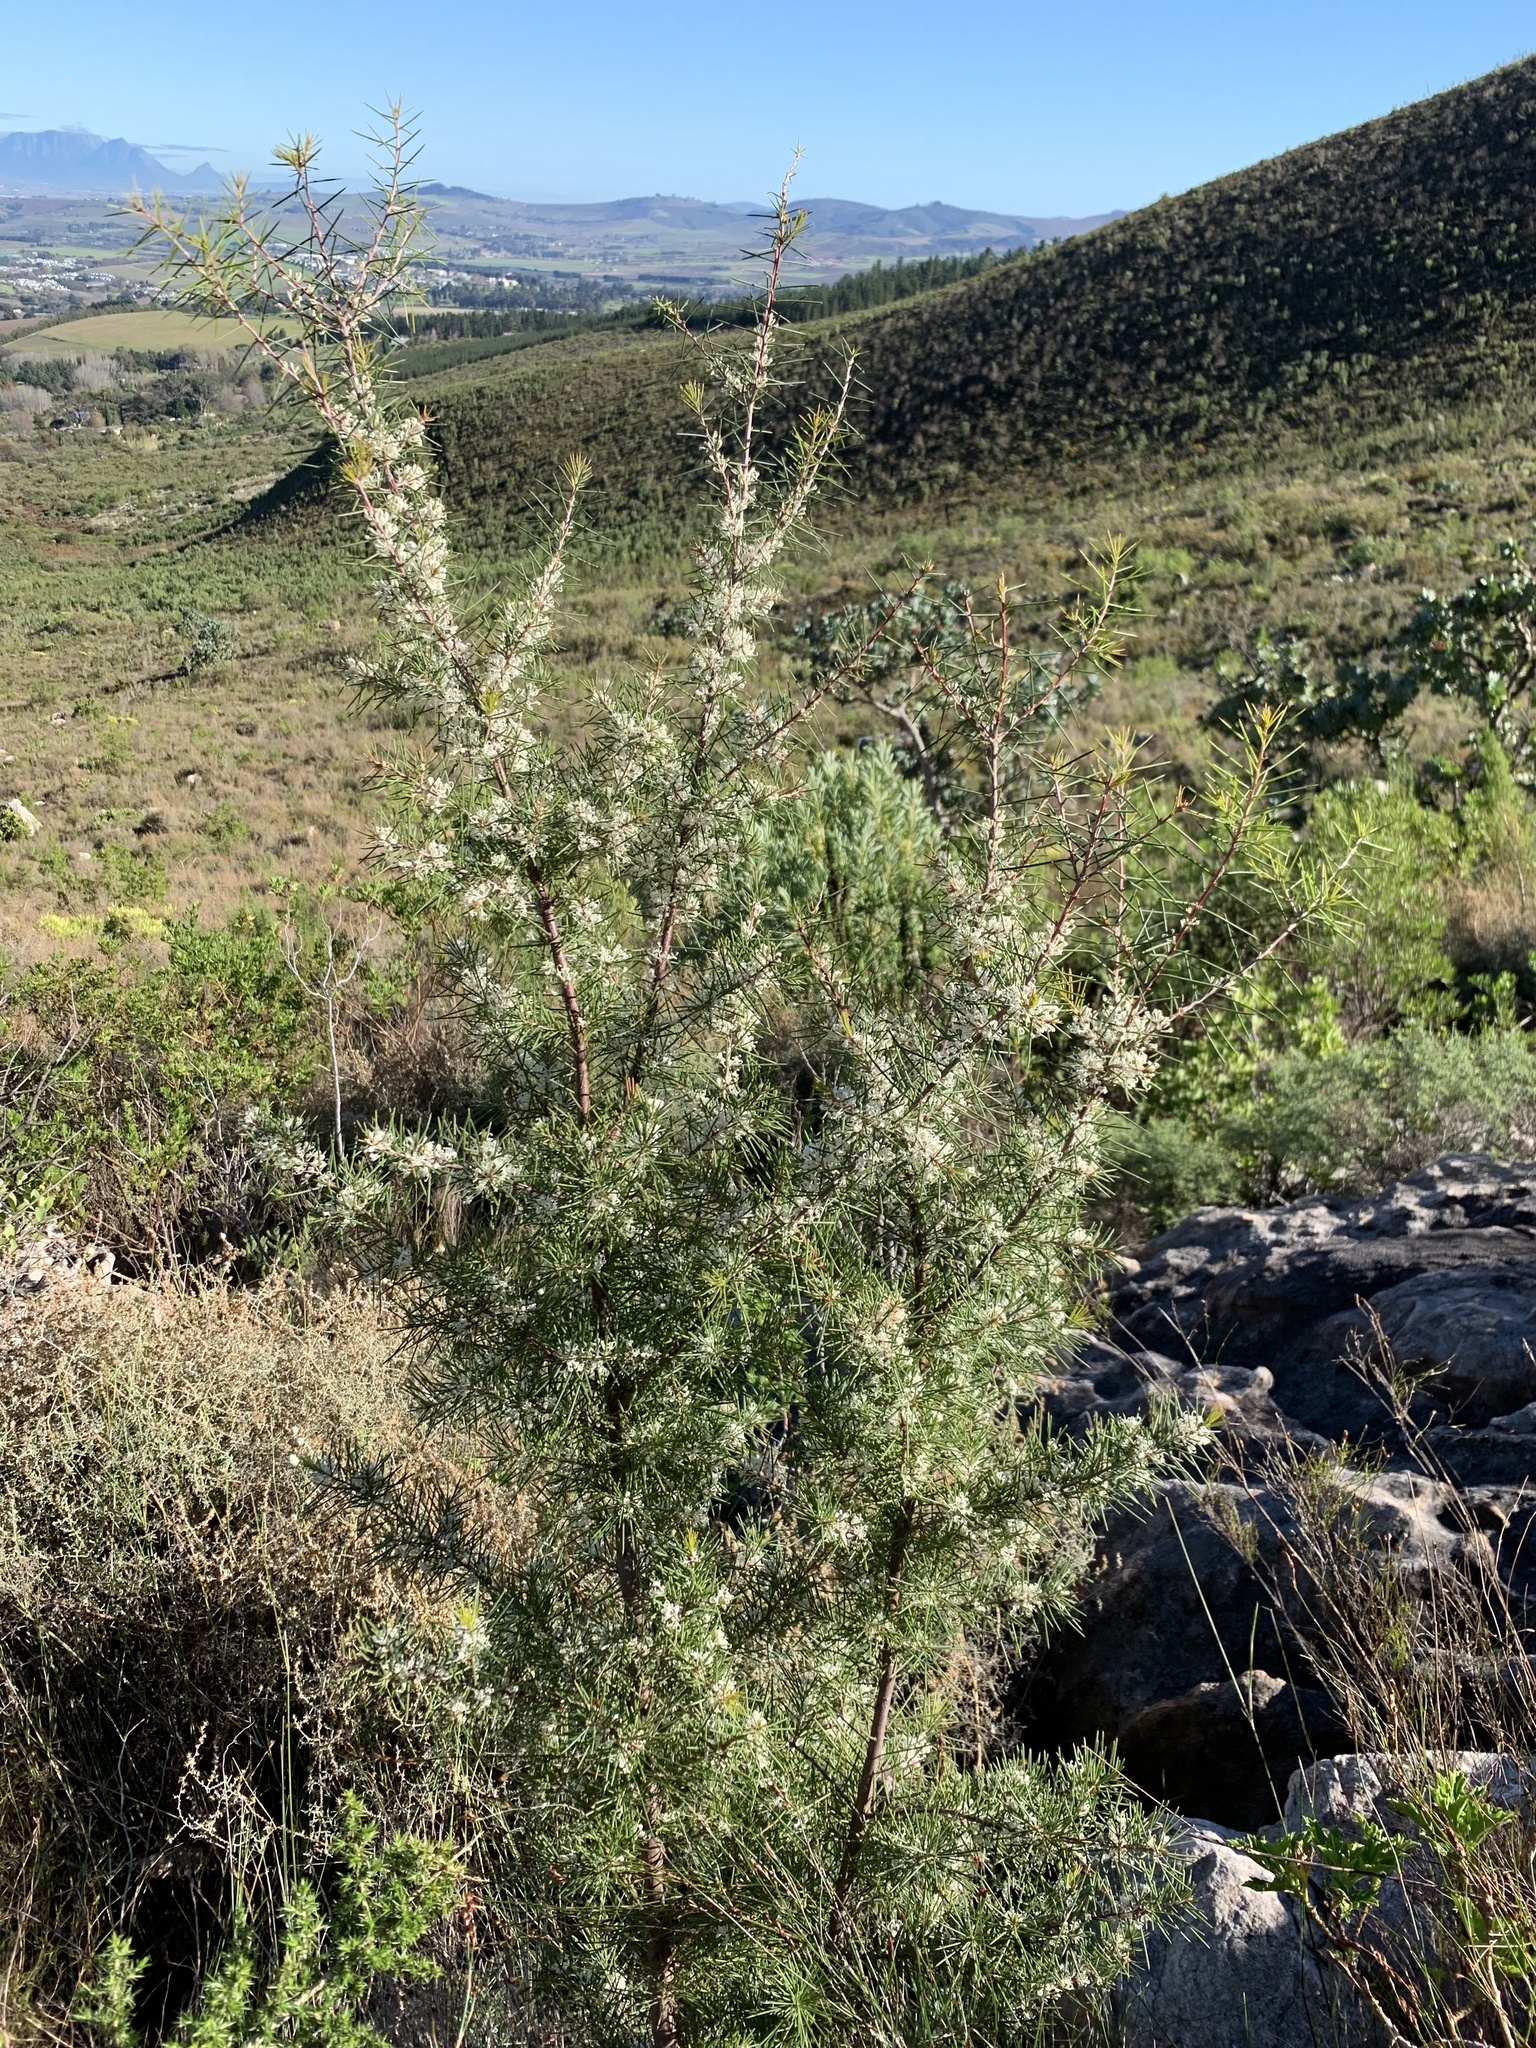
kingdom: Plantae
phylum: Tracheophyta
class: Magnoliopsida
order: Proteales
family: Proteaceae
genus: Hakea
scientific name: Hakea sericea
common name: Needle bush
